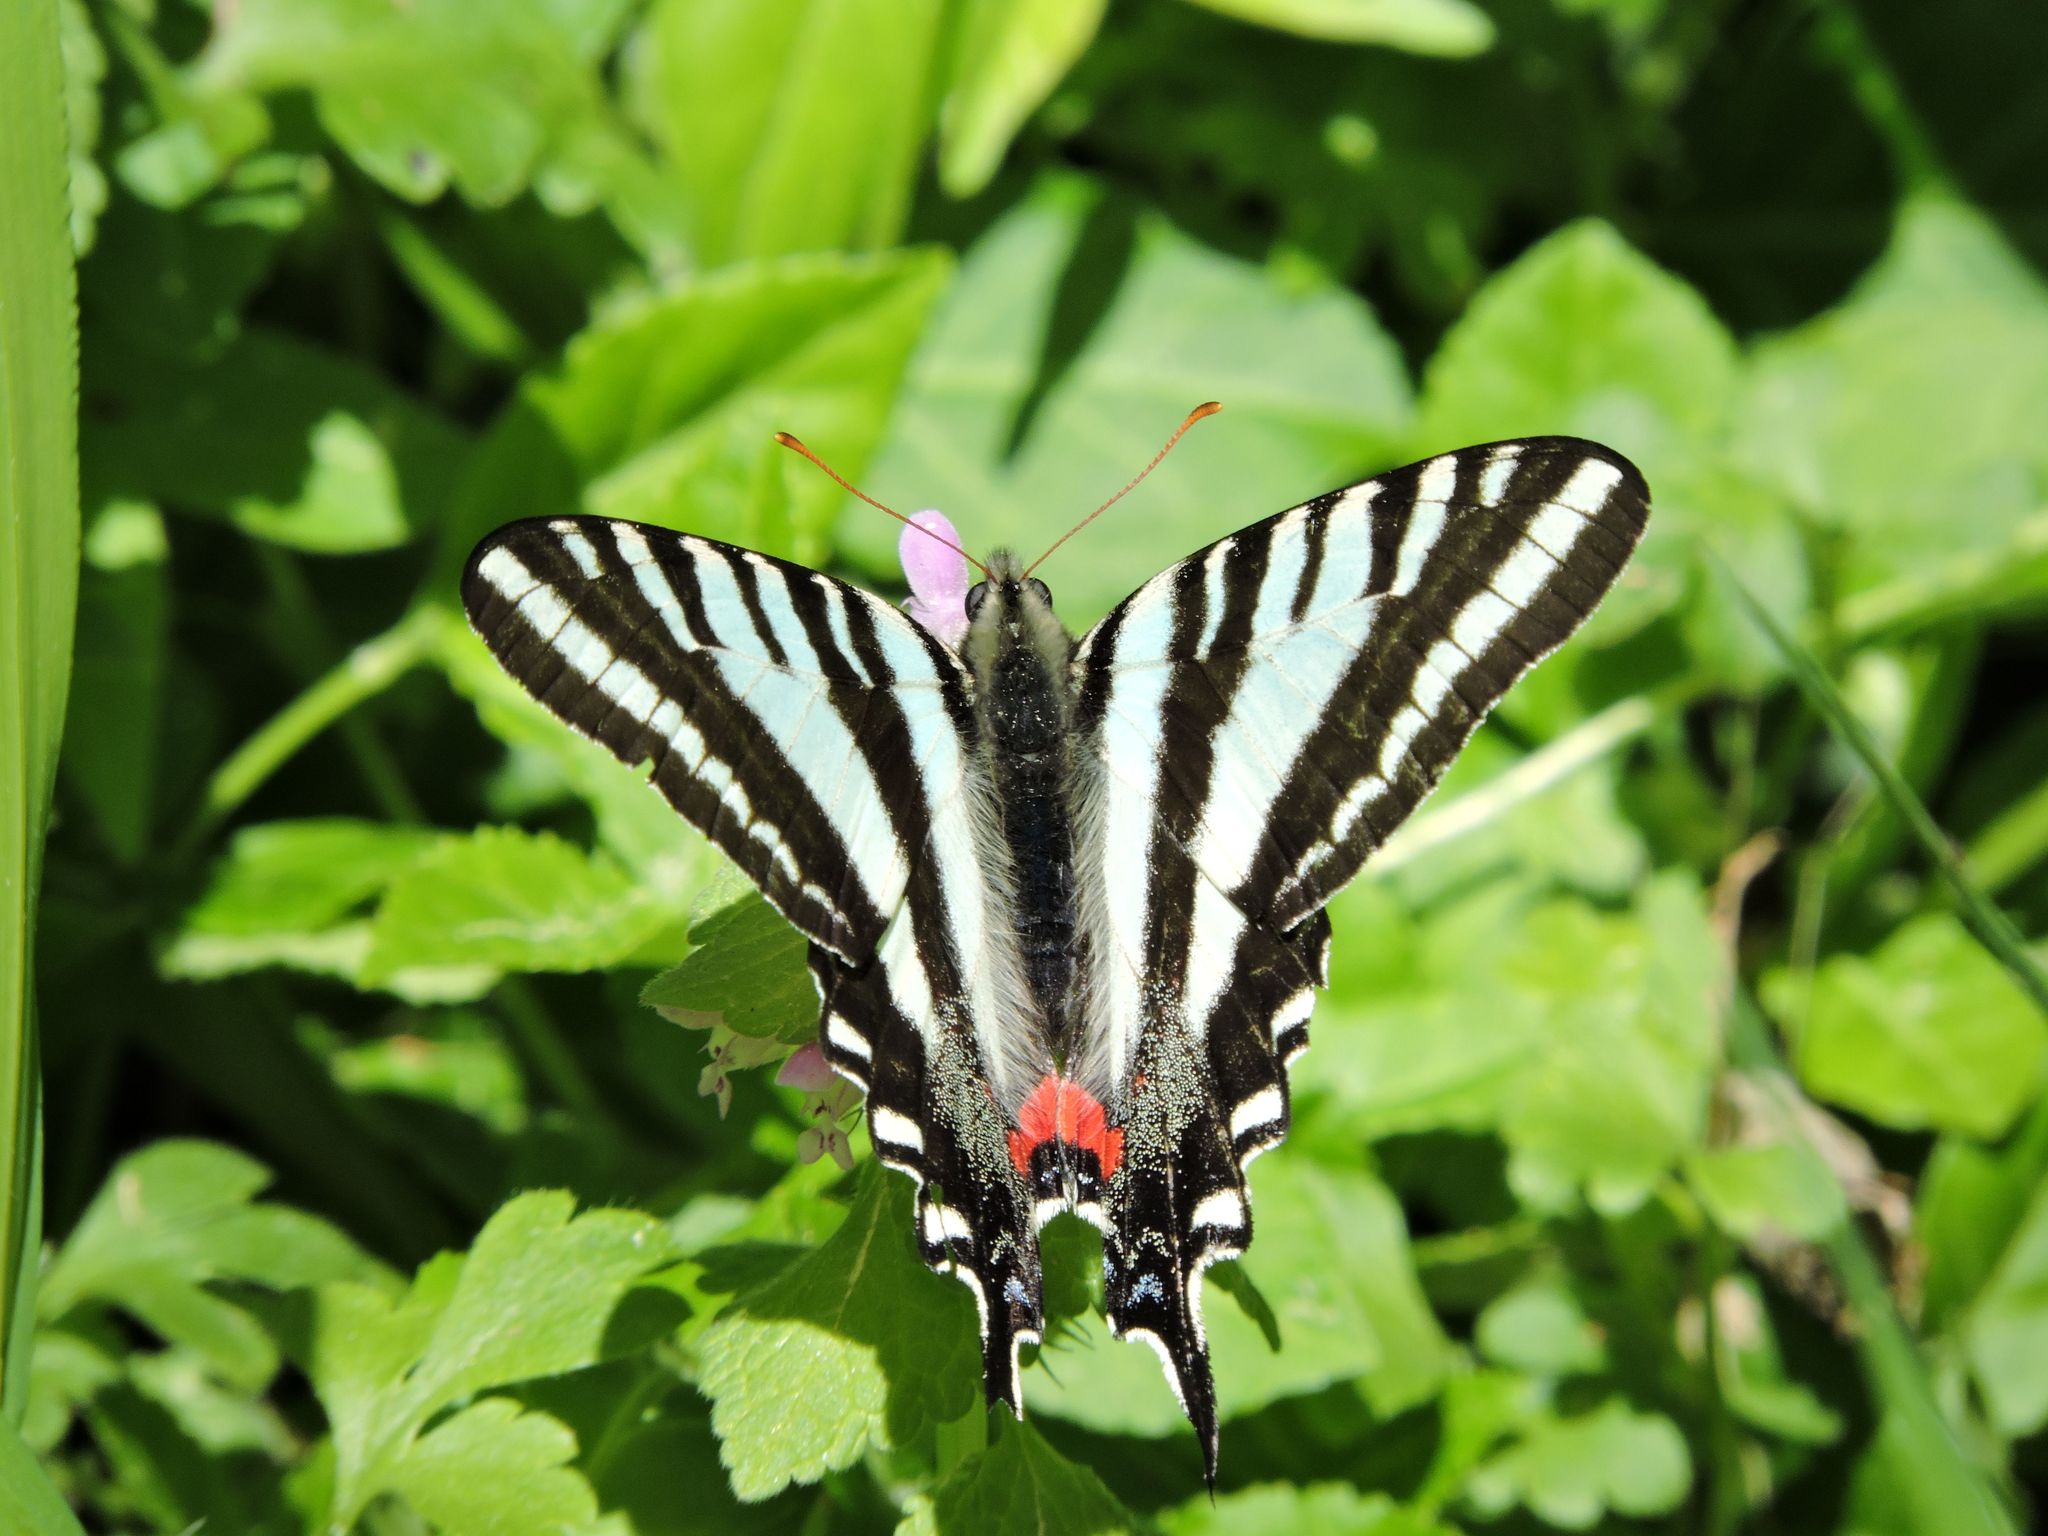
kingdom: Animalia
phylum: Arthropoda
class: Insecta
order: Lepidoptera
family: Papilionidae
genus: Protographium
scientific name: Protographium marcellus
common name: Zebra swallowtail
